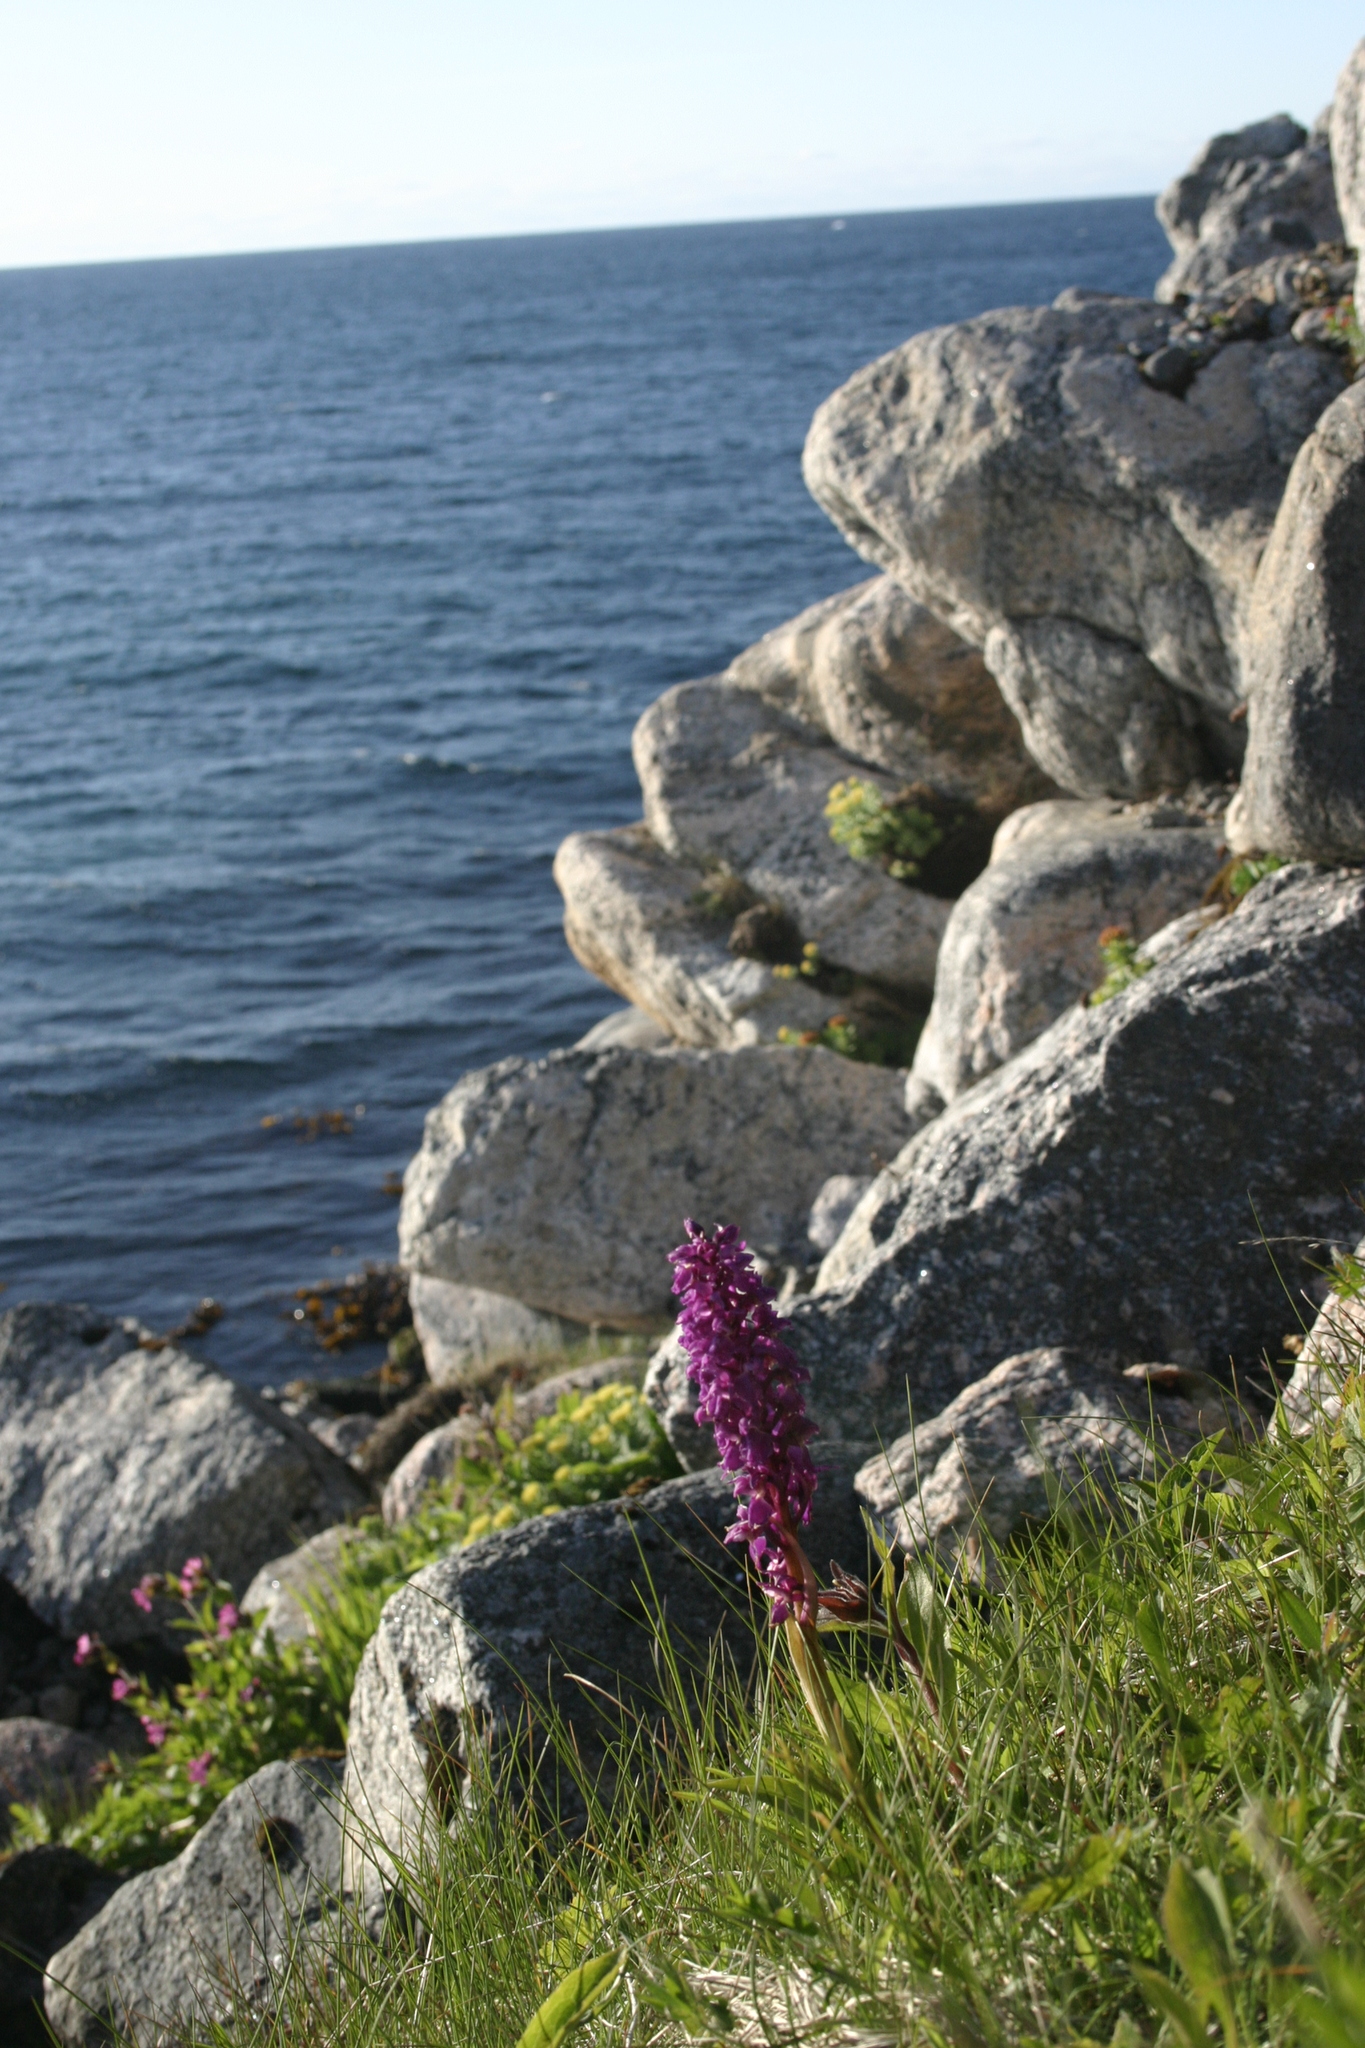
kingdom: Plantae
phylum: Tracheophyta
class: Liliopsida
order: Asparagales
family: Orchidaceae
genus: Orchis
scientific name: Orchis mascula
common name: Early-purple orchid
